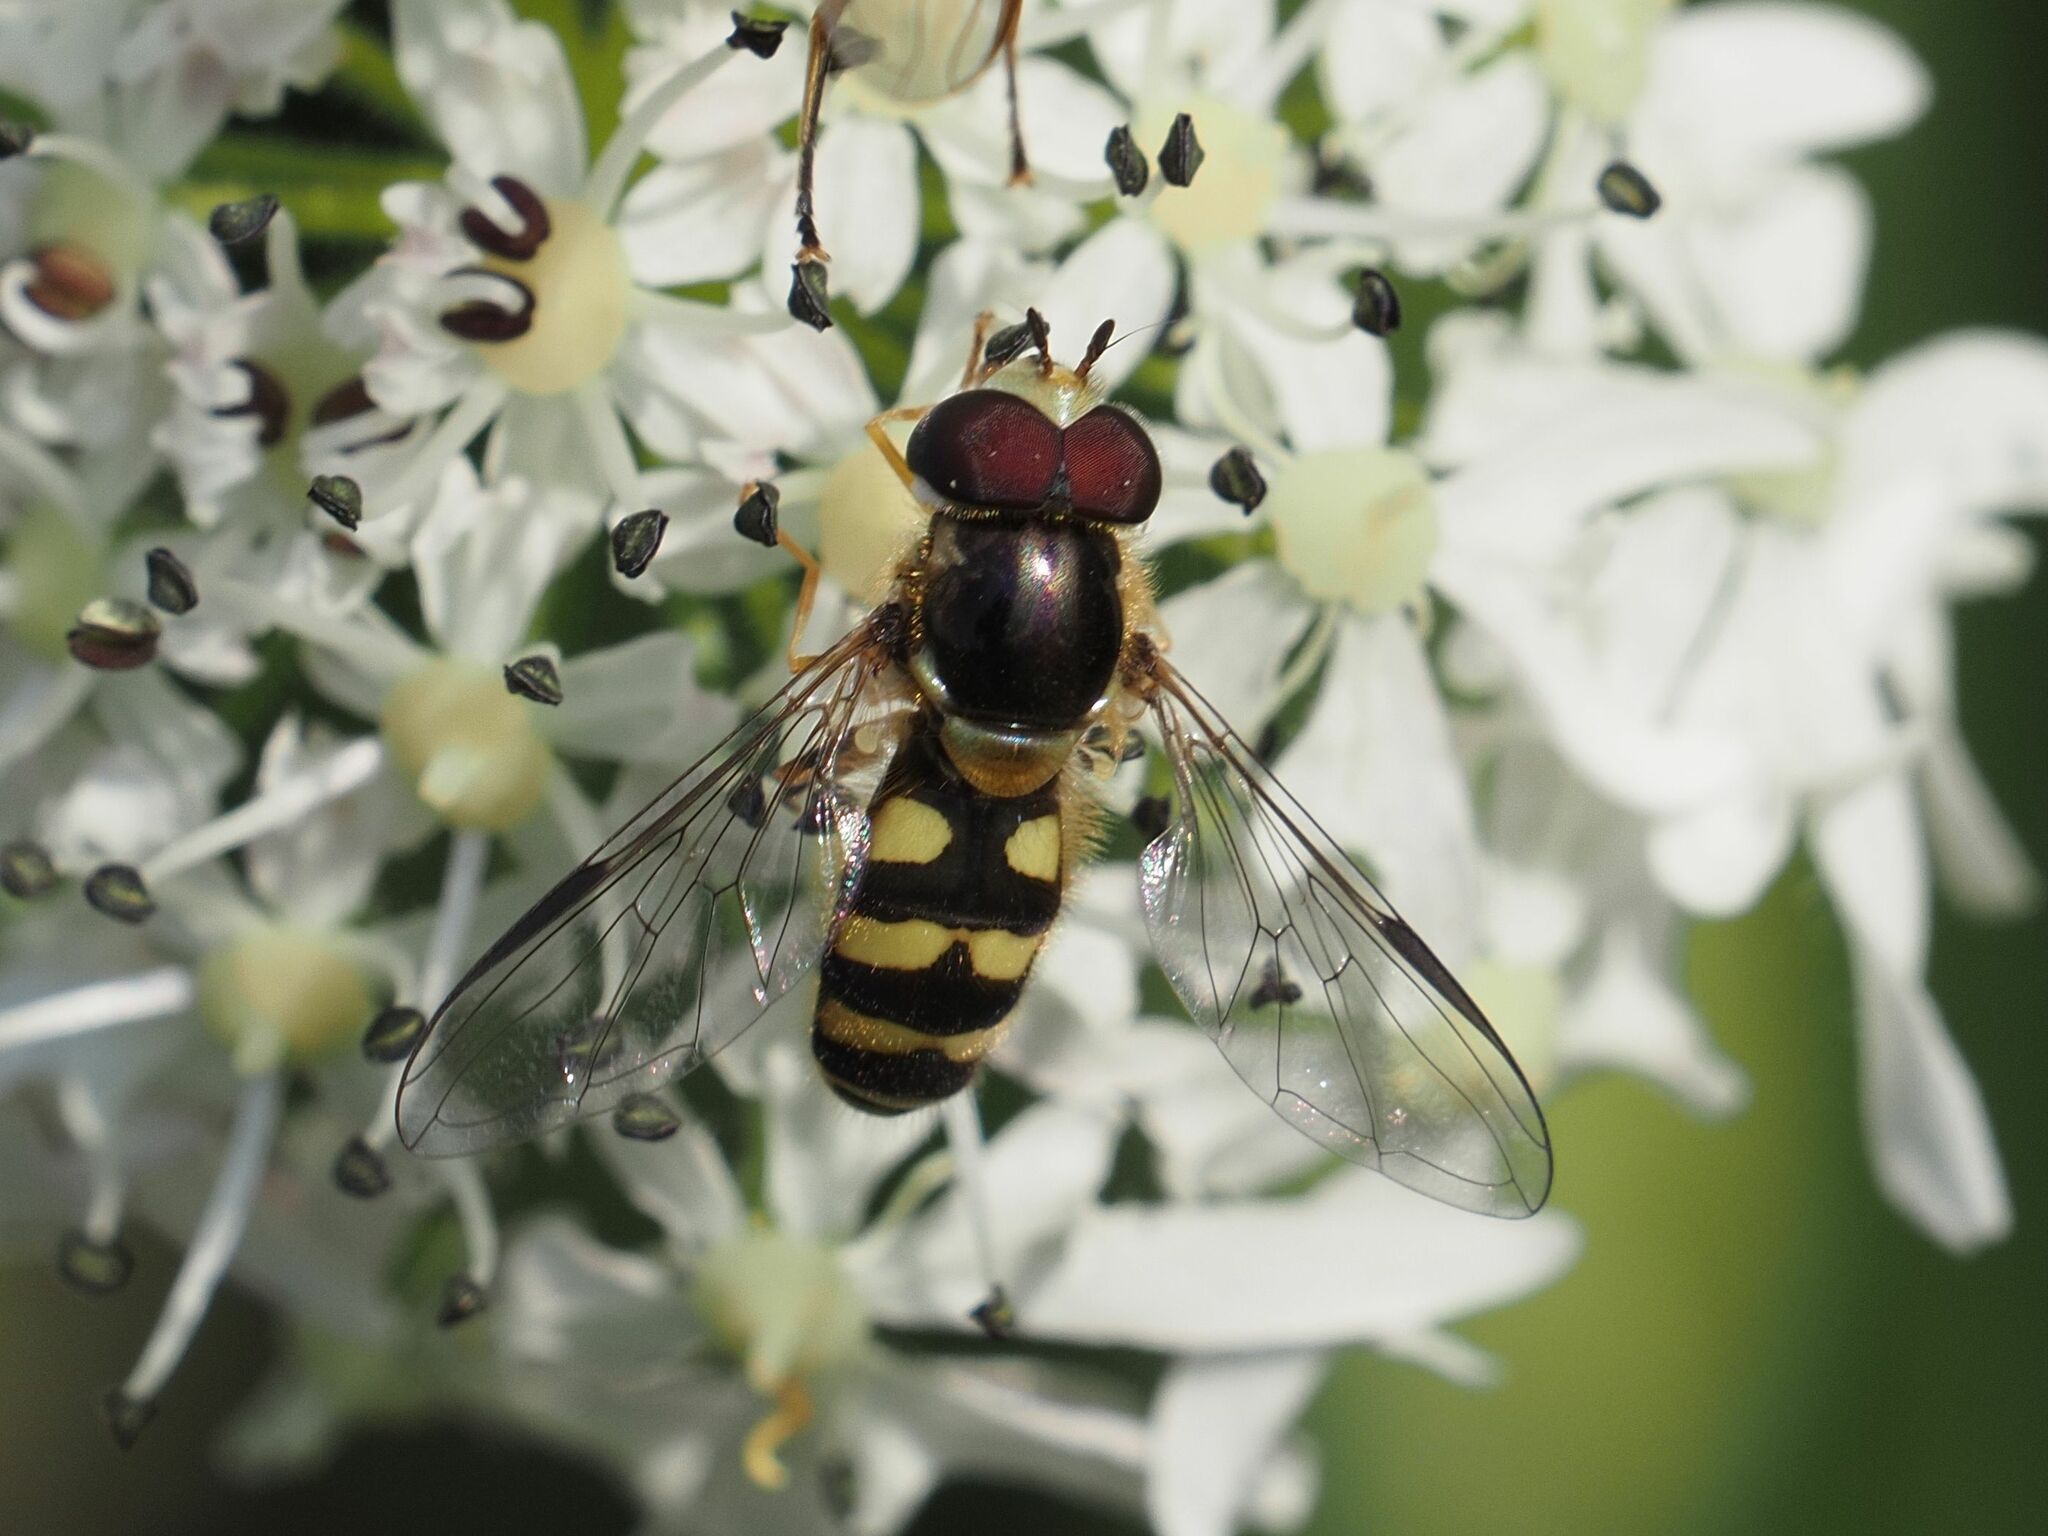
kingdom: Animalia
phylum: Arthropoda
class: Insecta
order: Diptera
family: Syrphidae
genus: Dasysyrphus
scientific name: Dasysyrphus albostriatus
